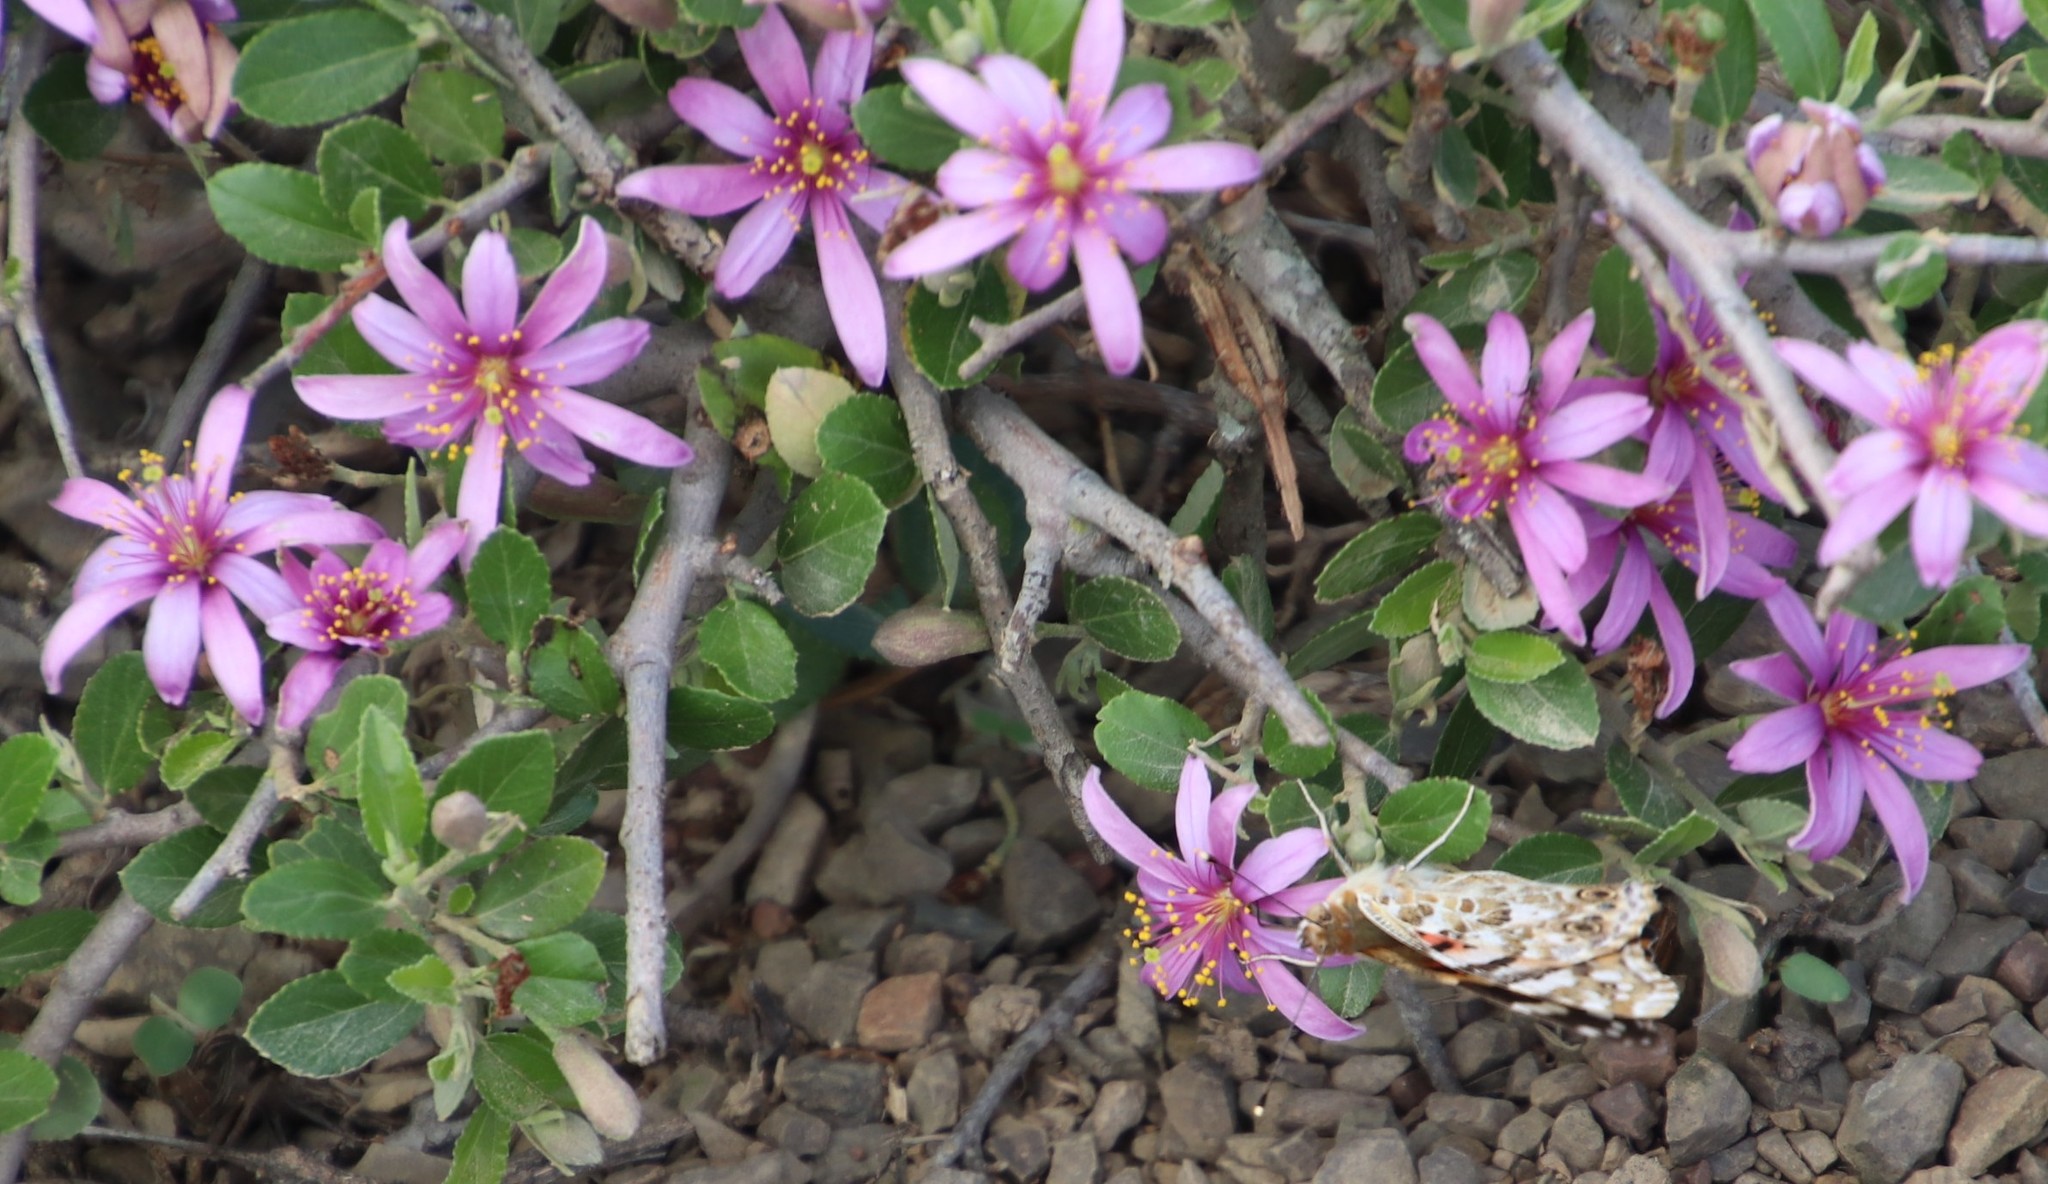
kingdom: Animalia
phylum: Arthropoda
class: Insecta
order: Lepidoptera
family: Nymphalidae
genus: Vanessa
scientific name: Vanessa cardui
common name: Painted lady
